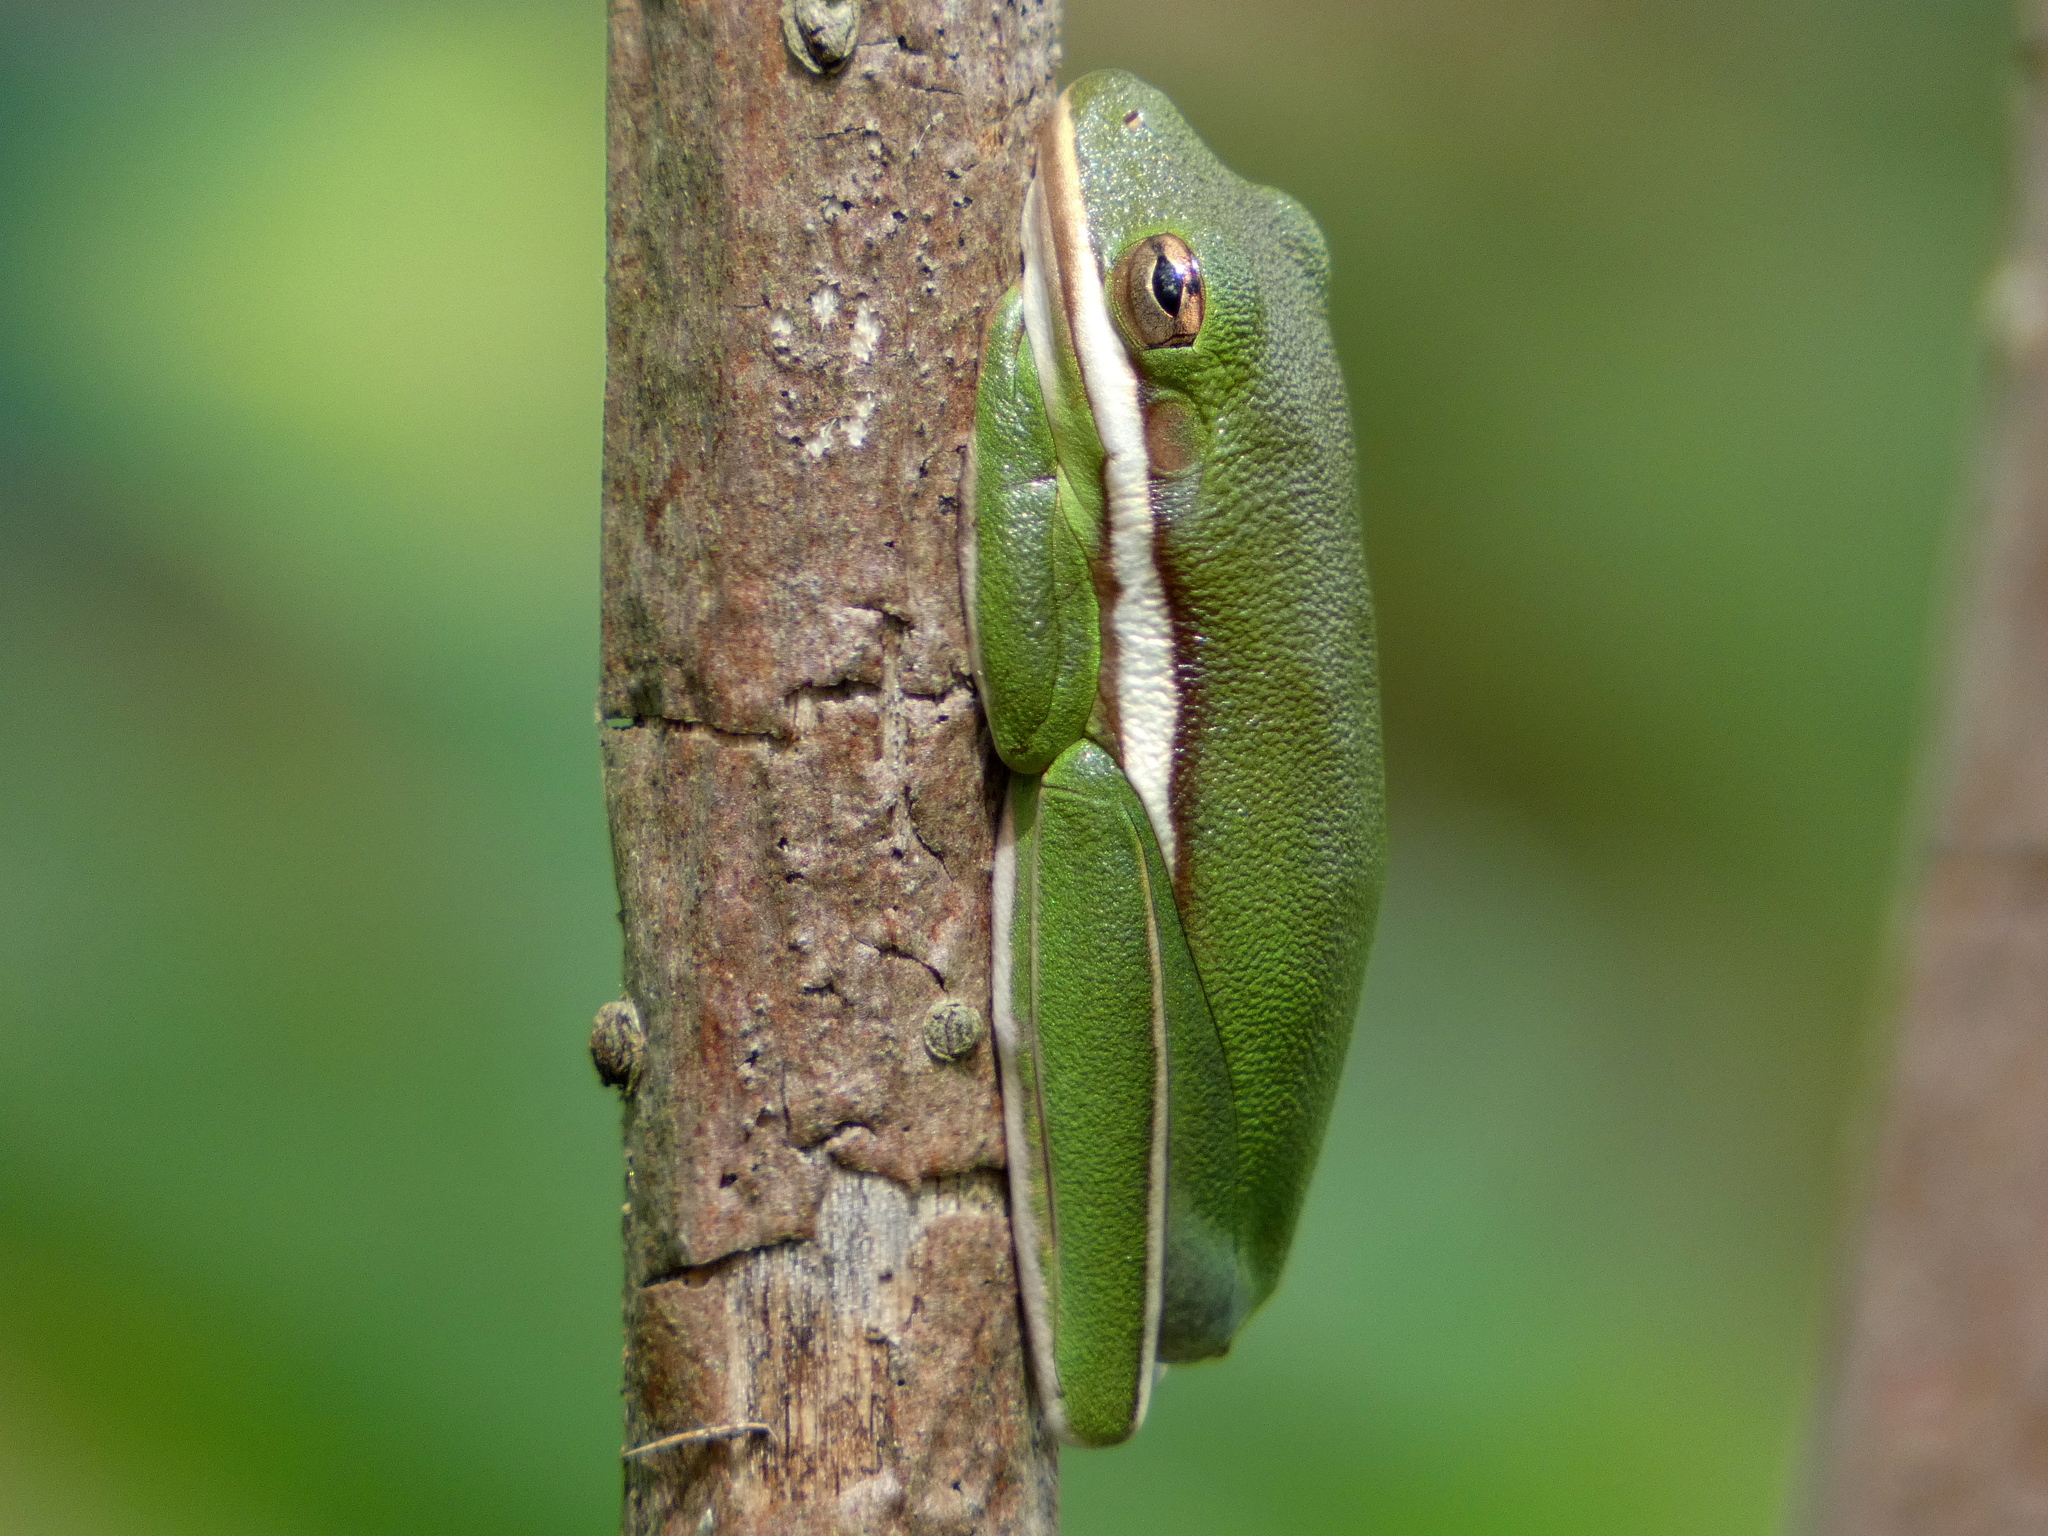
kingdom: Animalia
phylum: Chordata
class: Amphibia
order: Anura
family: Hylidae
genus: Dryophytes
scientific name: Dryophytes cinereus
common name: Green treefrog
